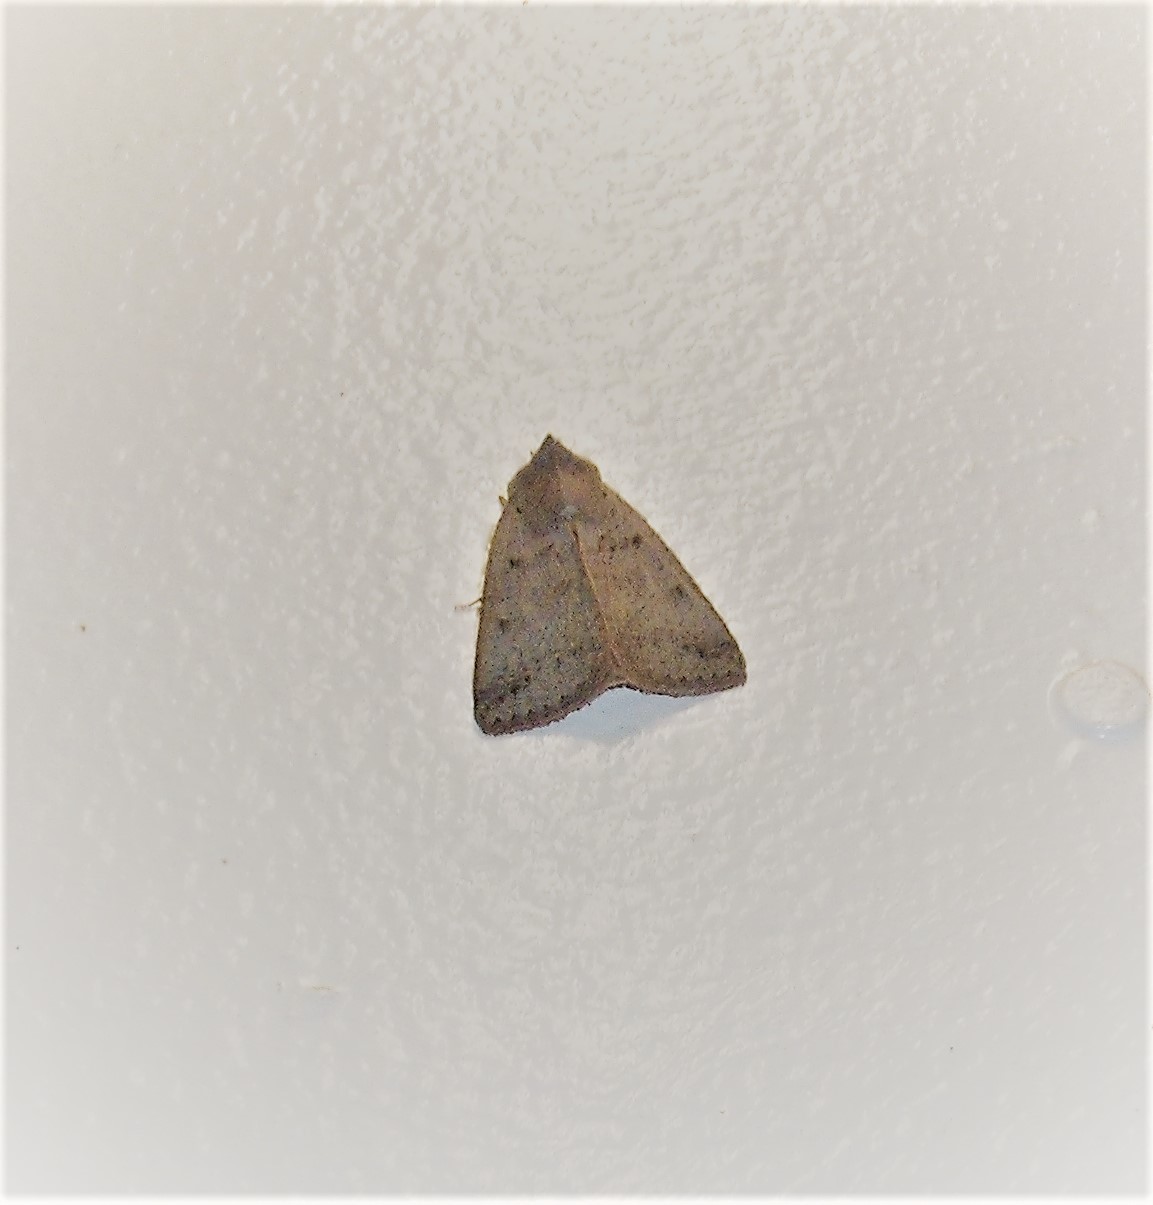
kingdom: Animalia
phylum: Arthropoda
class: Insecta
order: Lepidoptera
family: Erebidae
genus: Pantydia
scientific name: Pantydia sparsa
